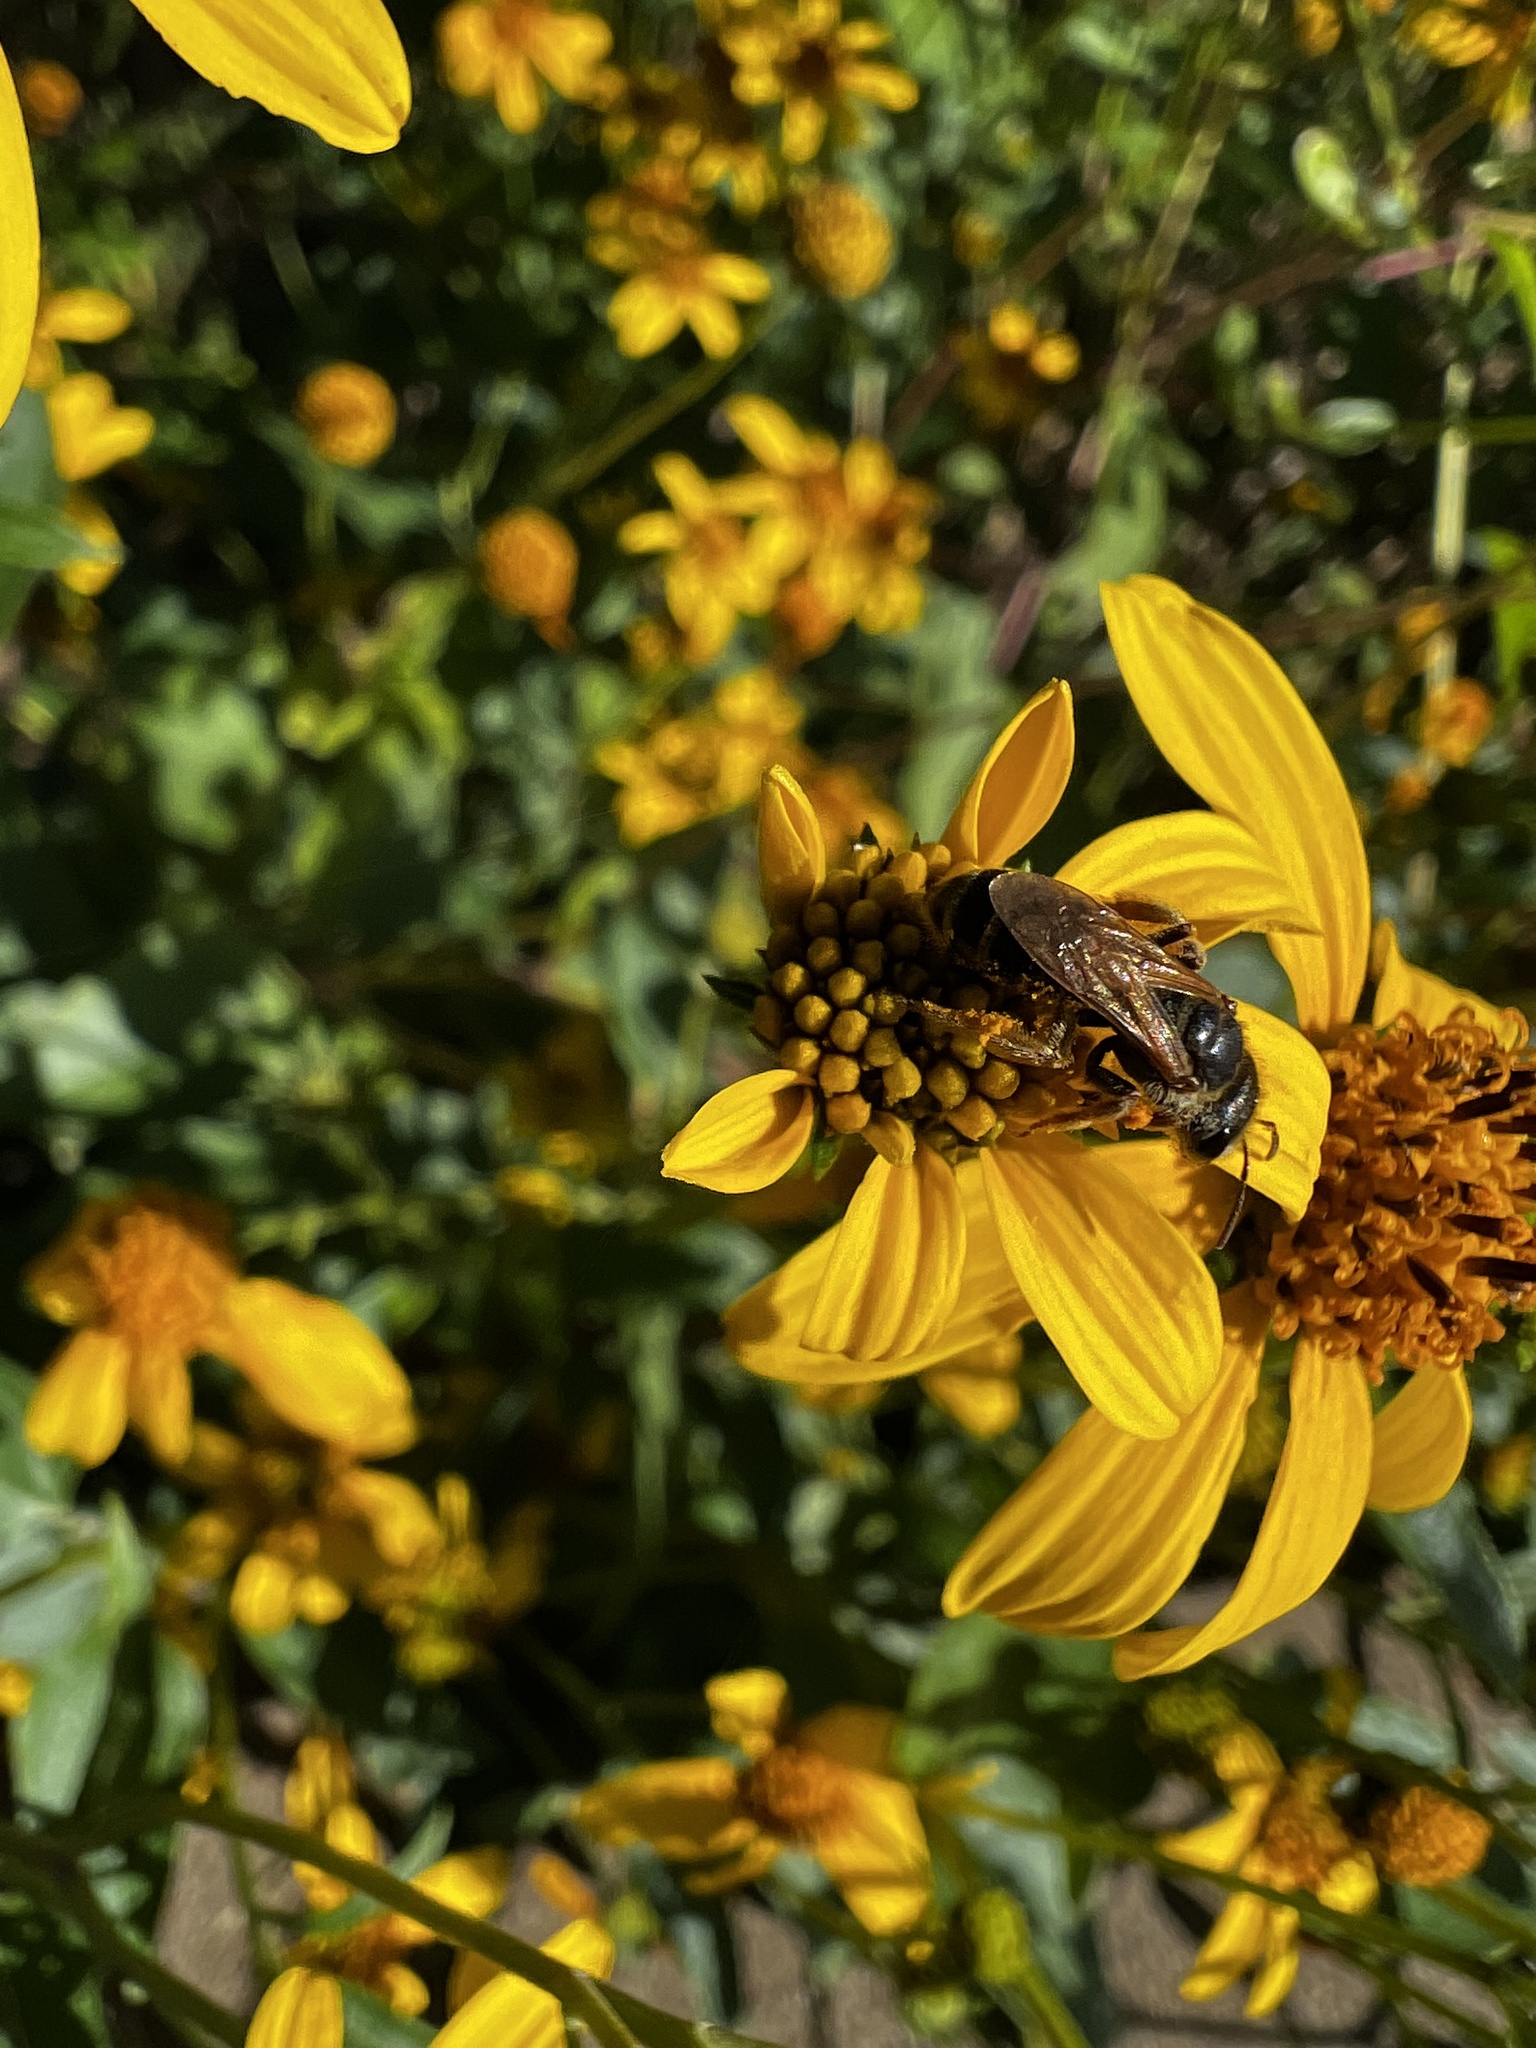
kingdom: Animalia
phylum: Arthropoda
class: Insecta
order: Hymenoptera
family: Halictidae
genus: Halictus
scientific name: Halictus ligatus
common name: Ligated furrow bee
